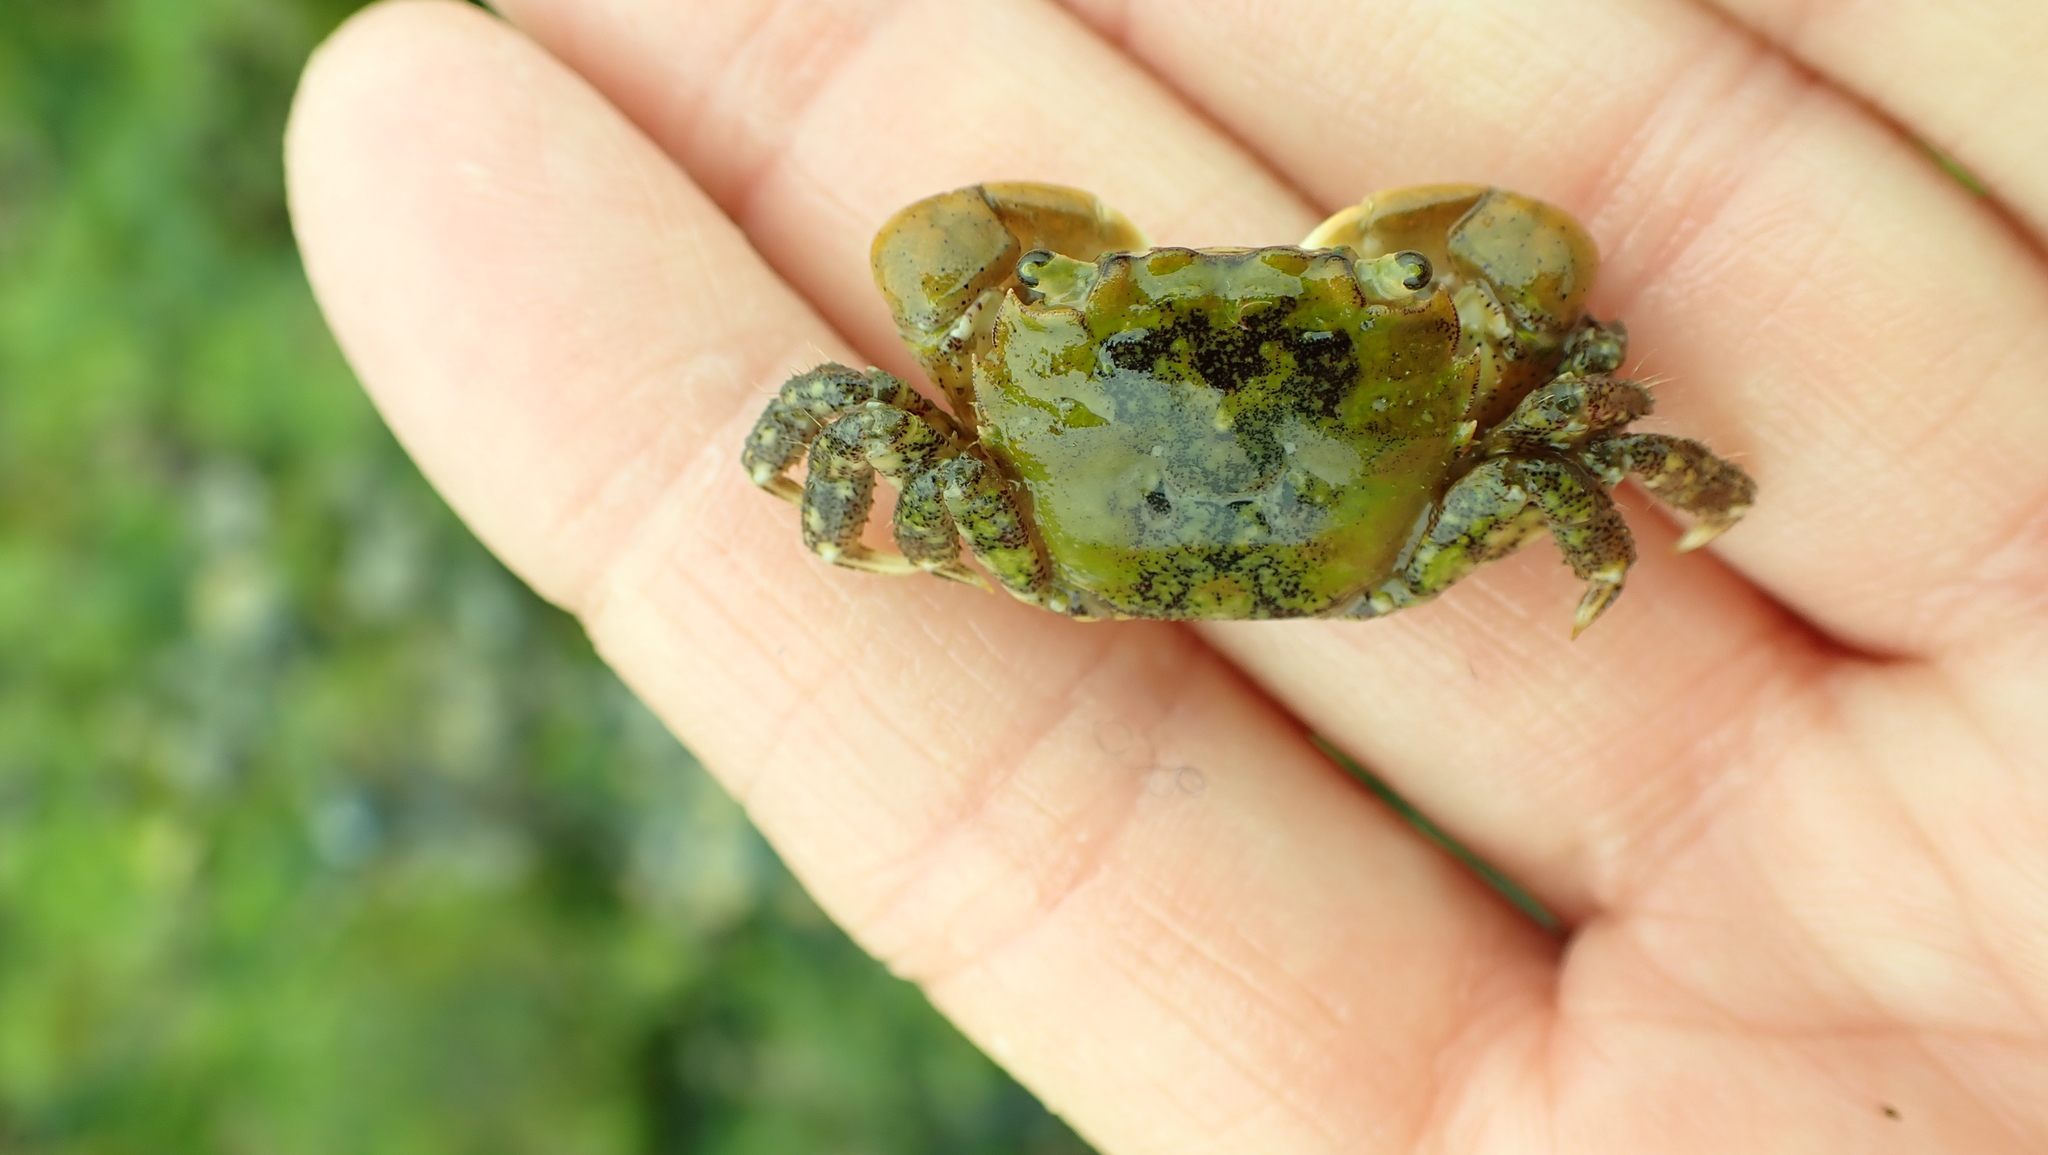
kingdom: Animalia
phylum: Arthropoda
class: Malacostraca
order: Decapoda
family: Varunidae
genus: Hemigrapsus
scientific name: Hemigrapsus oregonensis
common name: Yellow shore crab
